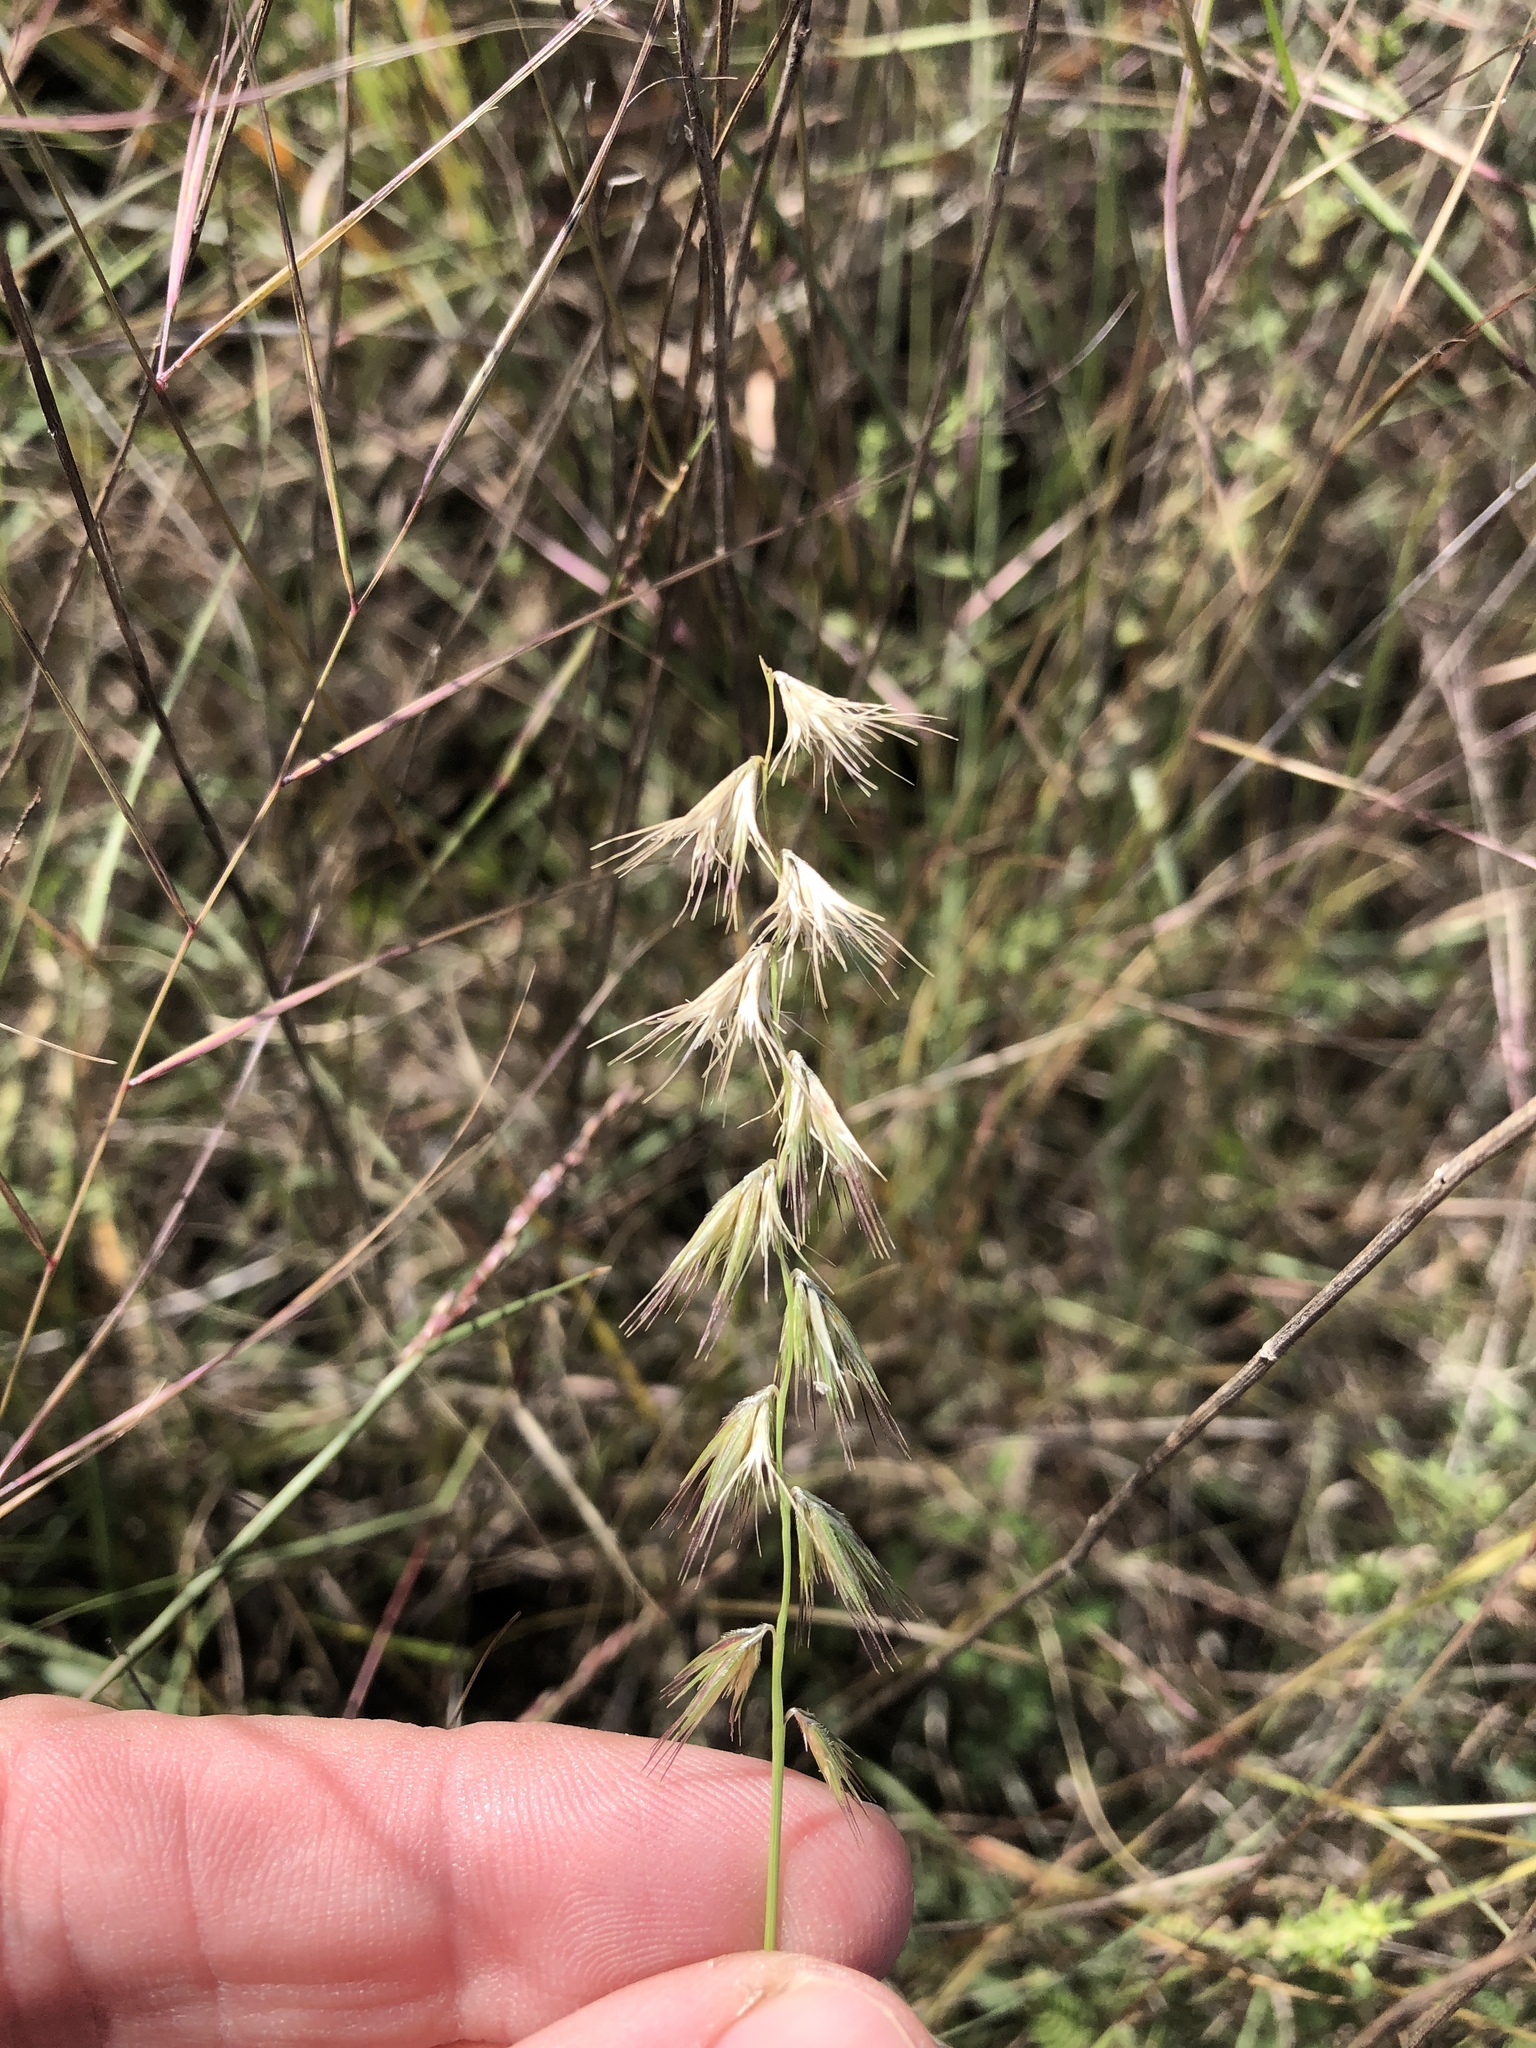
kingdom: Plantae
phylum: Tracheophyta
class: Liliopsida
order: Poales
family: Poaceae
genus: Bouteloua
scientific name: Bouteloua rigidiseta
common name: Texas grama
